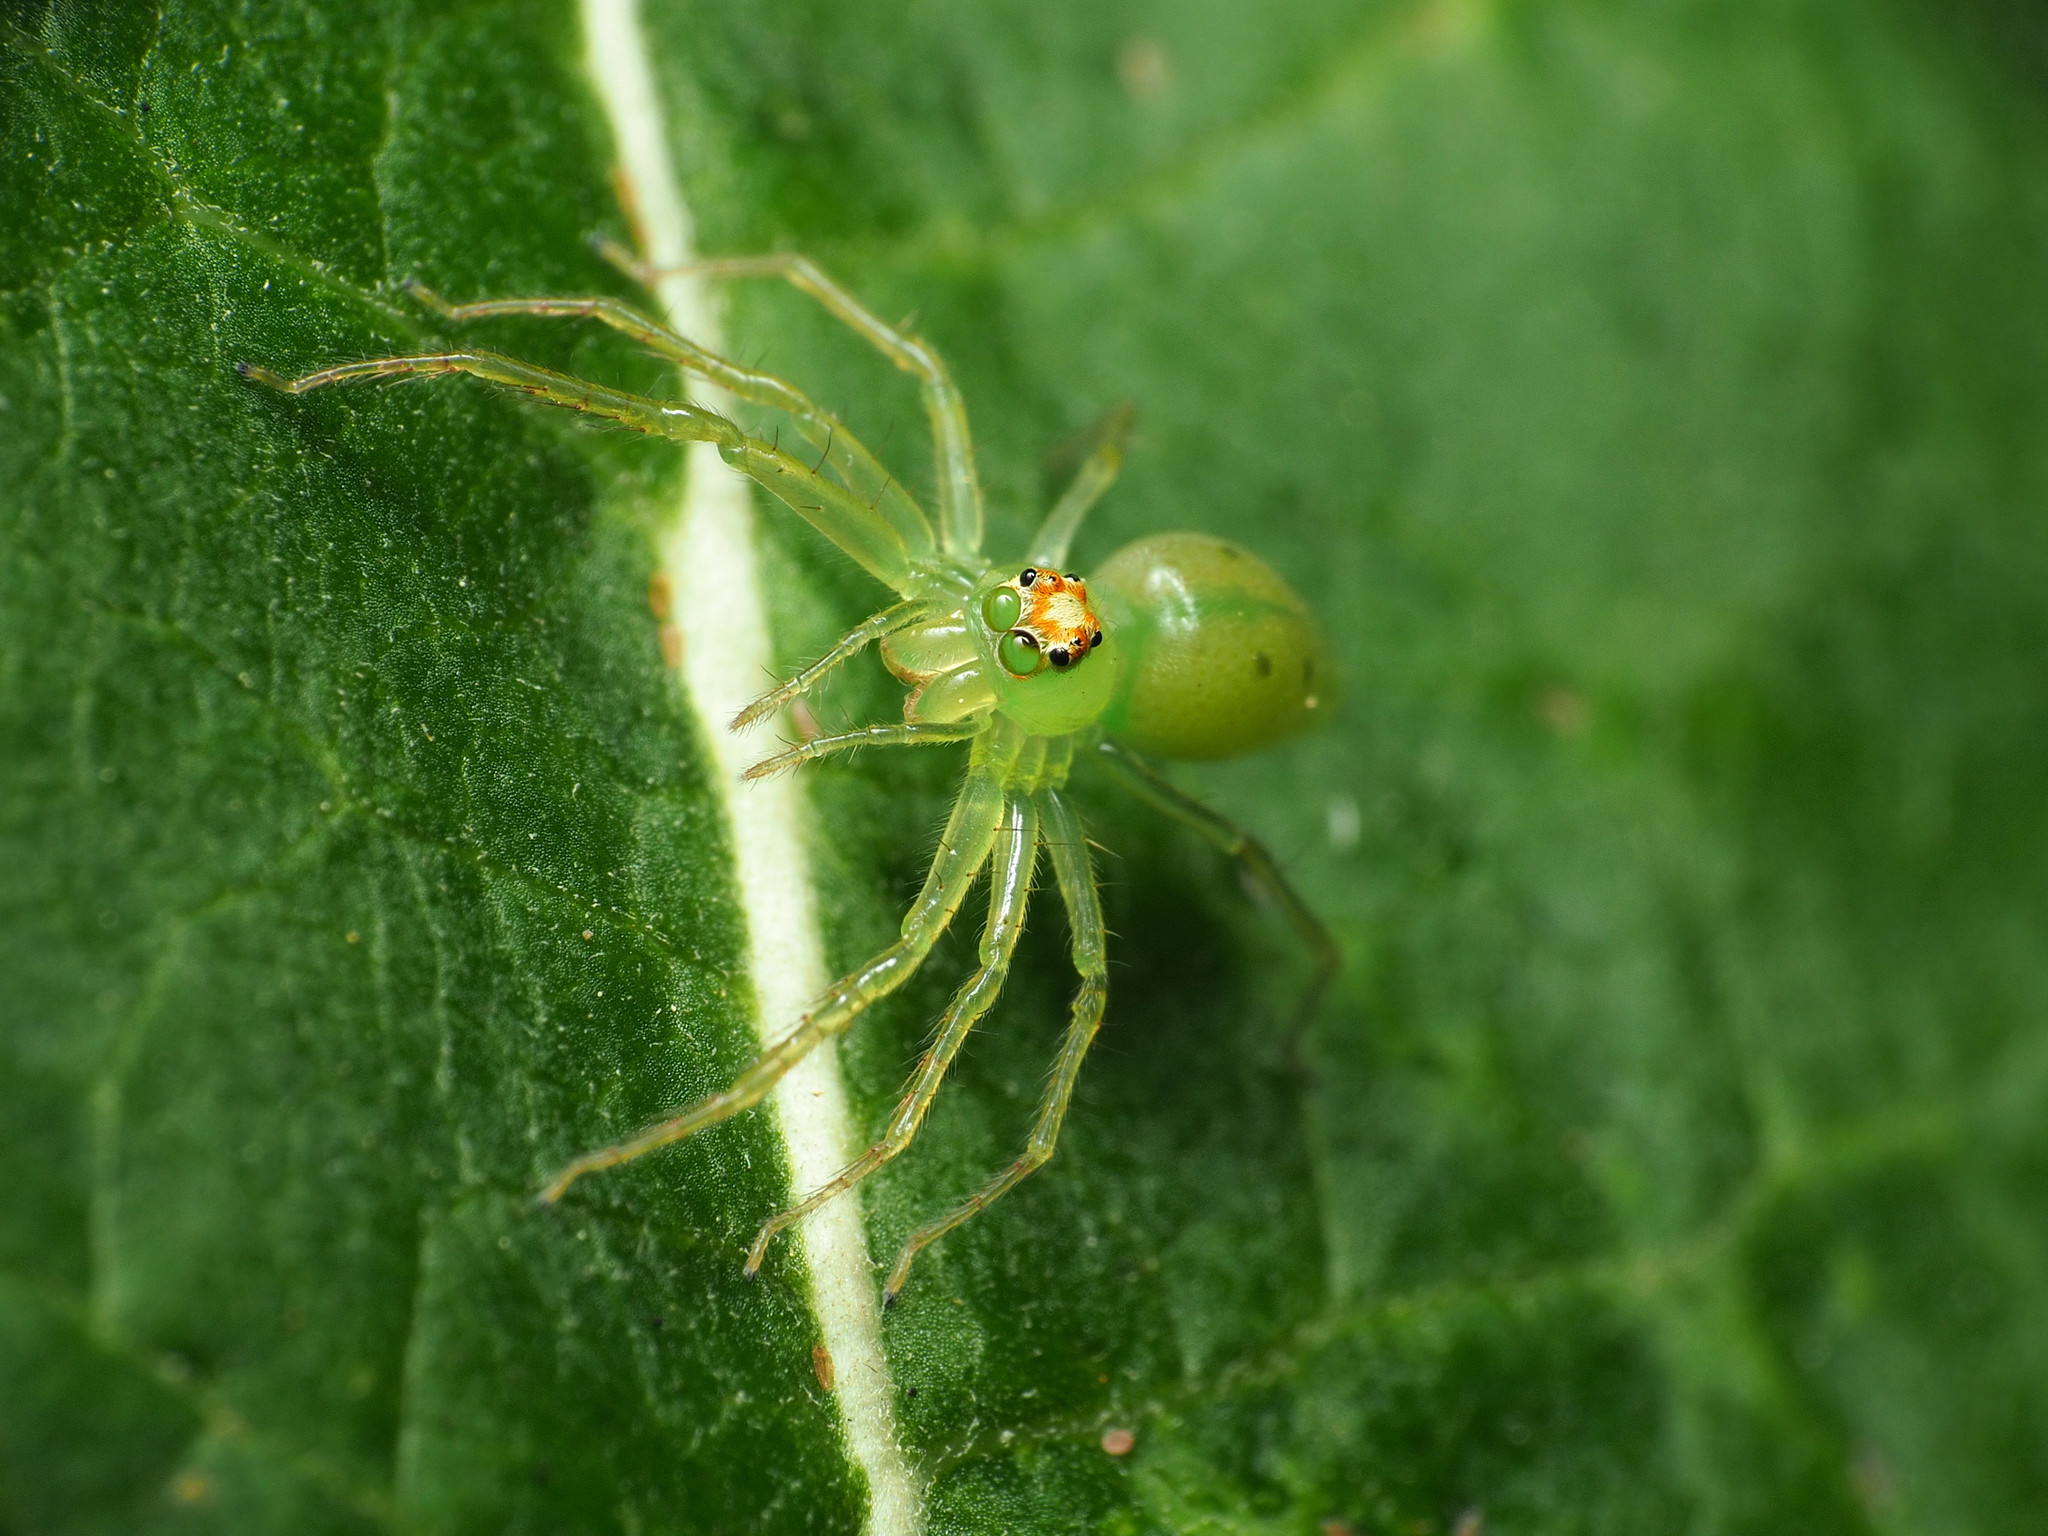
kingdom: Animalia
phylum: Arthropoda
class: Arachnida
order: Araneae
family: Salticidae
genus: Lyssomanes
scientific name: Lyssomanes viridis
